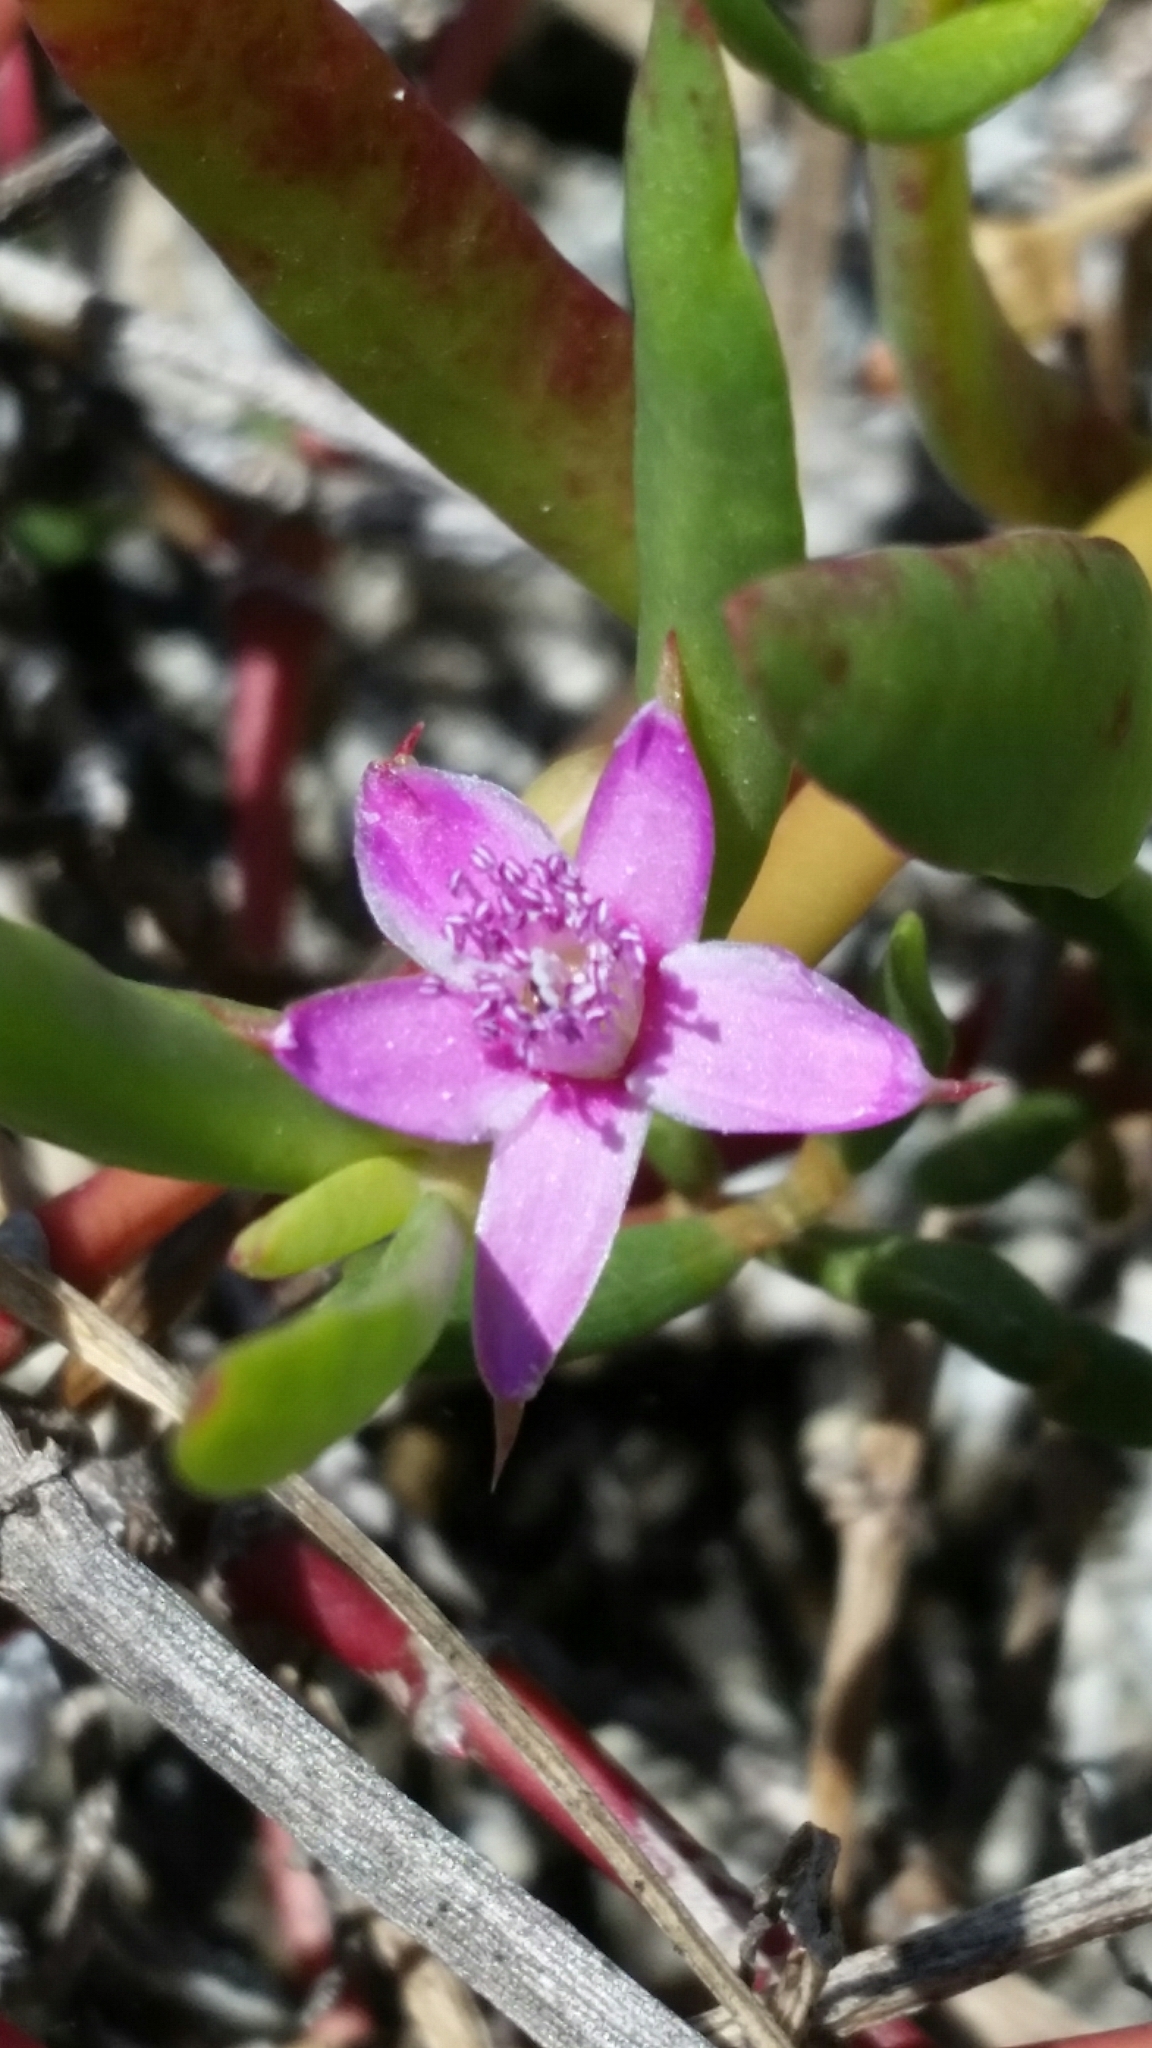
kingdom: Plantae
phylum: Tracheophyta
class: Magnoliopsida
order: Caryophyllales
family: Aizoaceae
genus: Sesuvium
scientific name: Sesuvium portulacastrum
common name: Sea-purslane
